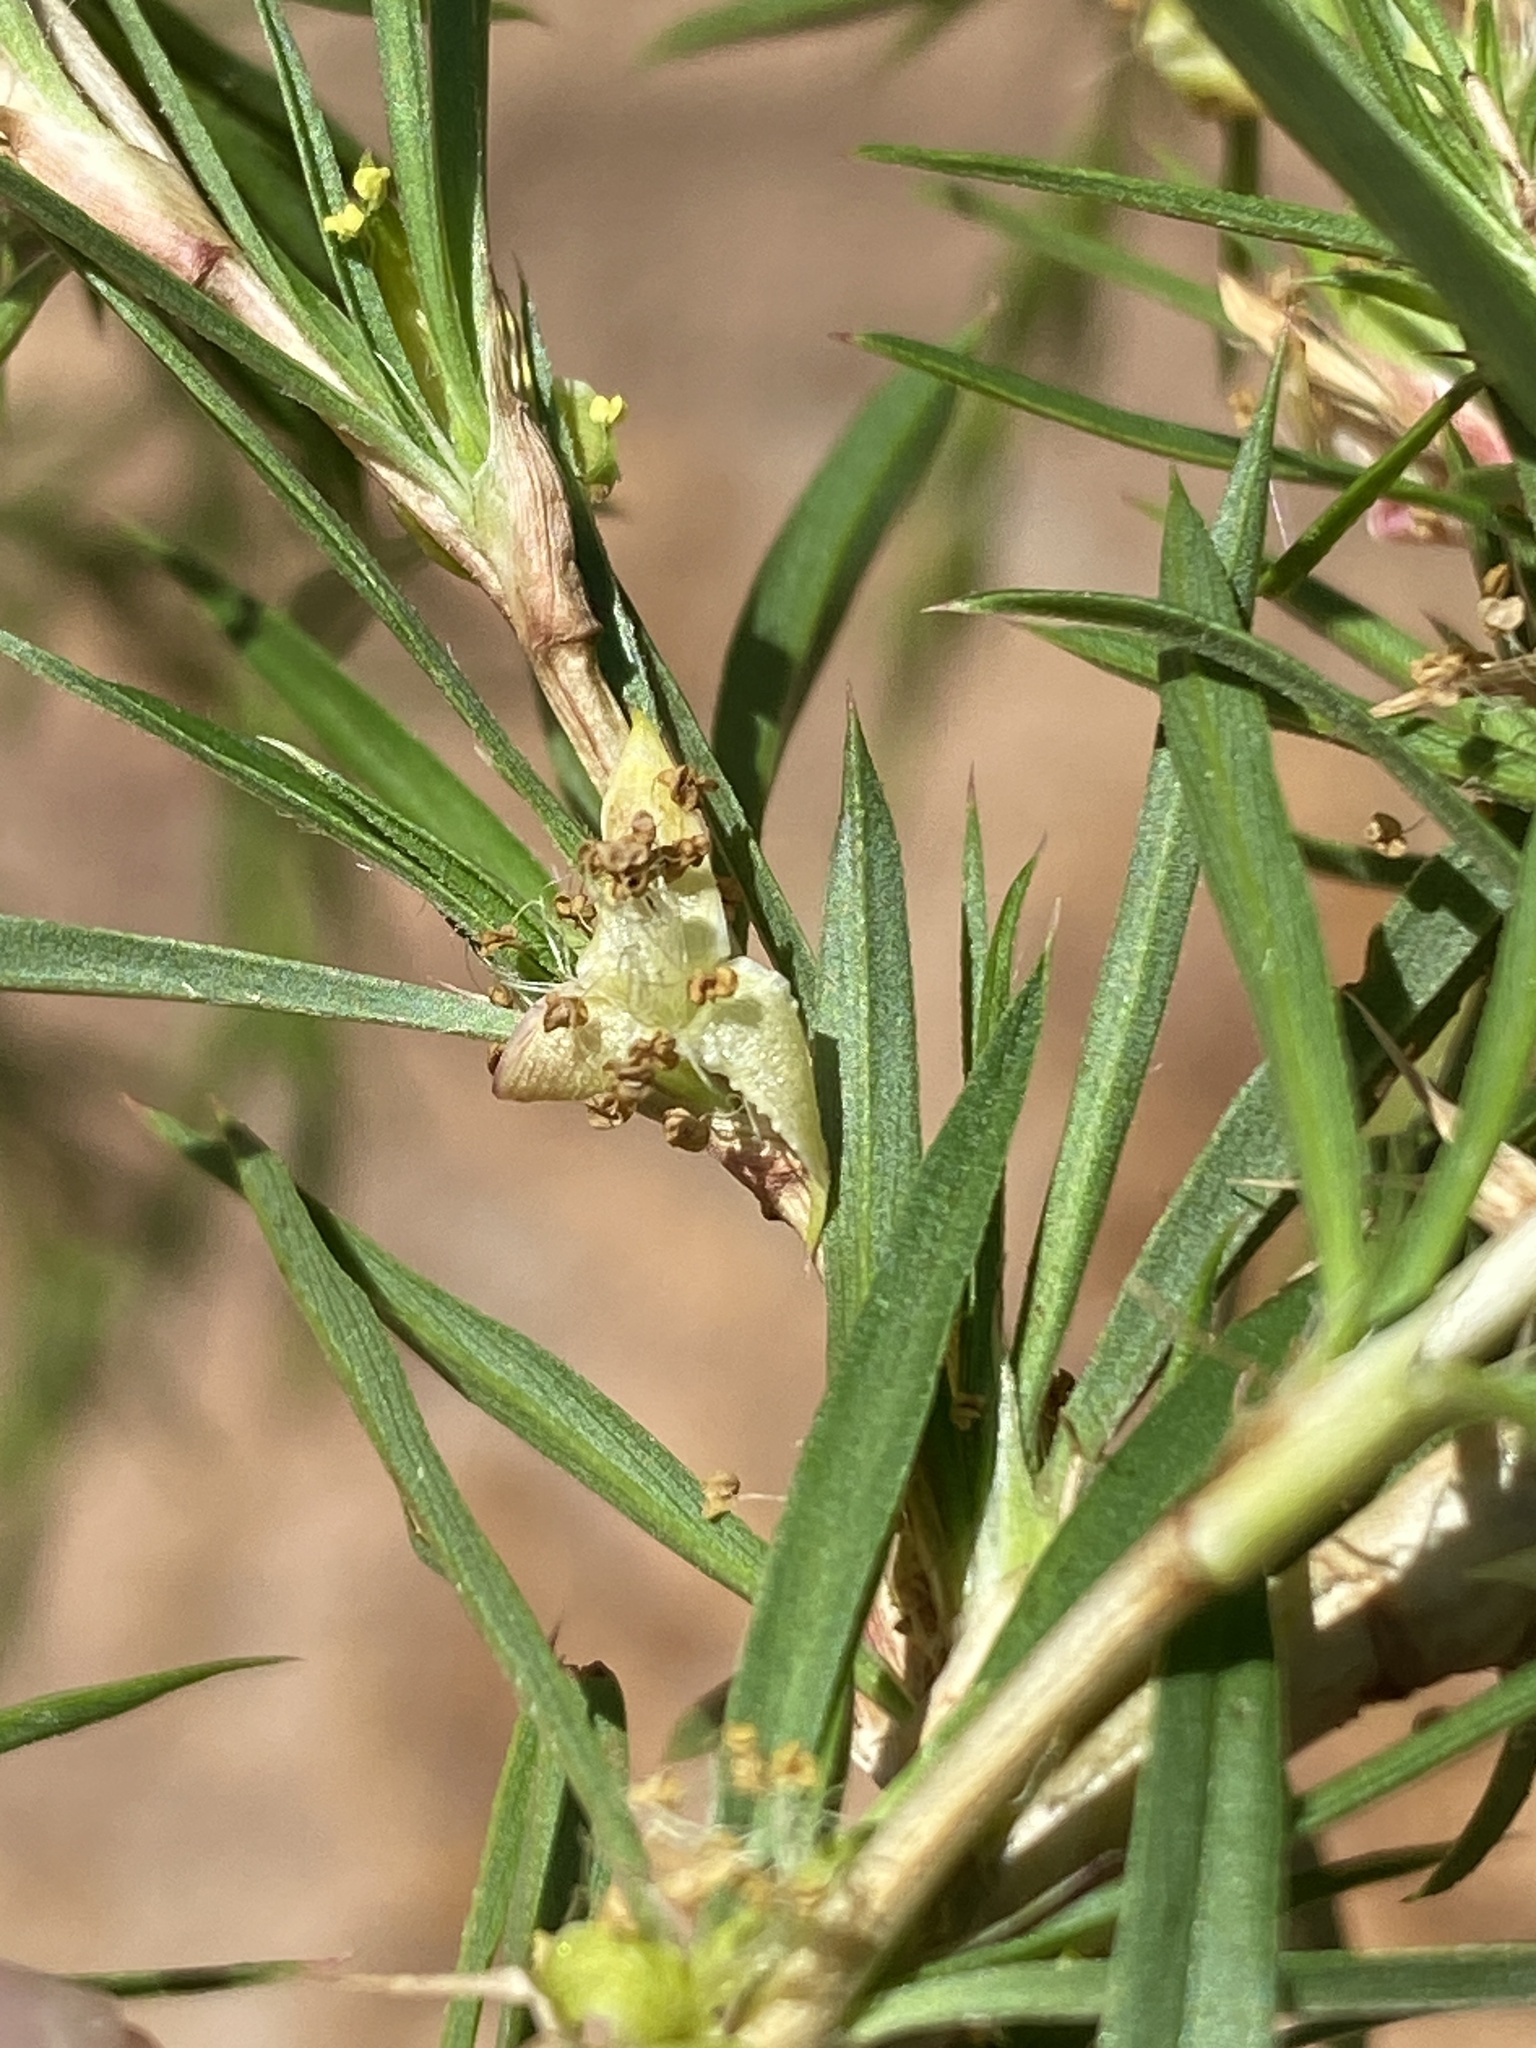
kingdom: Plantae
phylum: Tracheophyta
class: Magnoliopsida
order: Rosales
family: Rosaceae
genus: Cliffortia
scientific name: Cliffortia strobilifera
